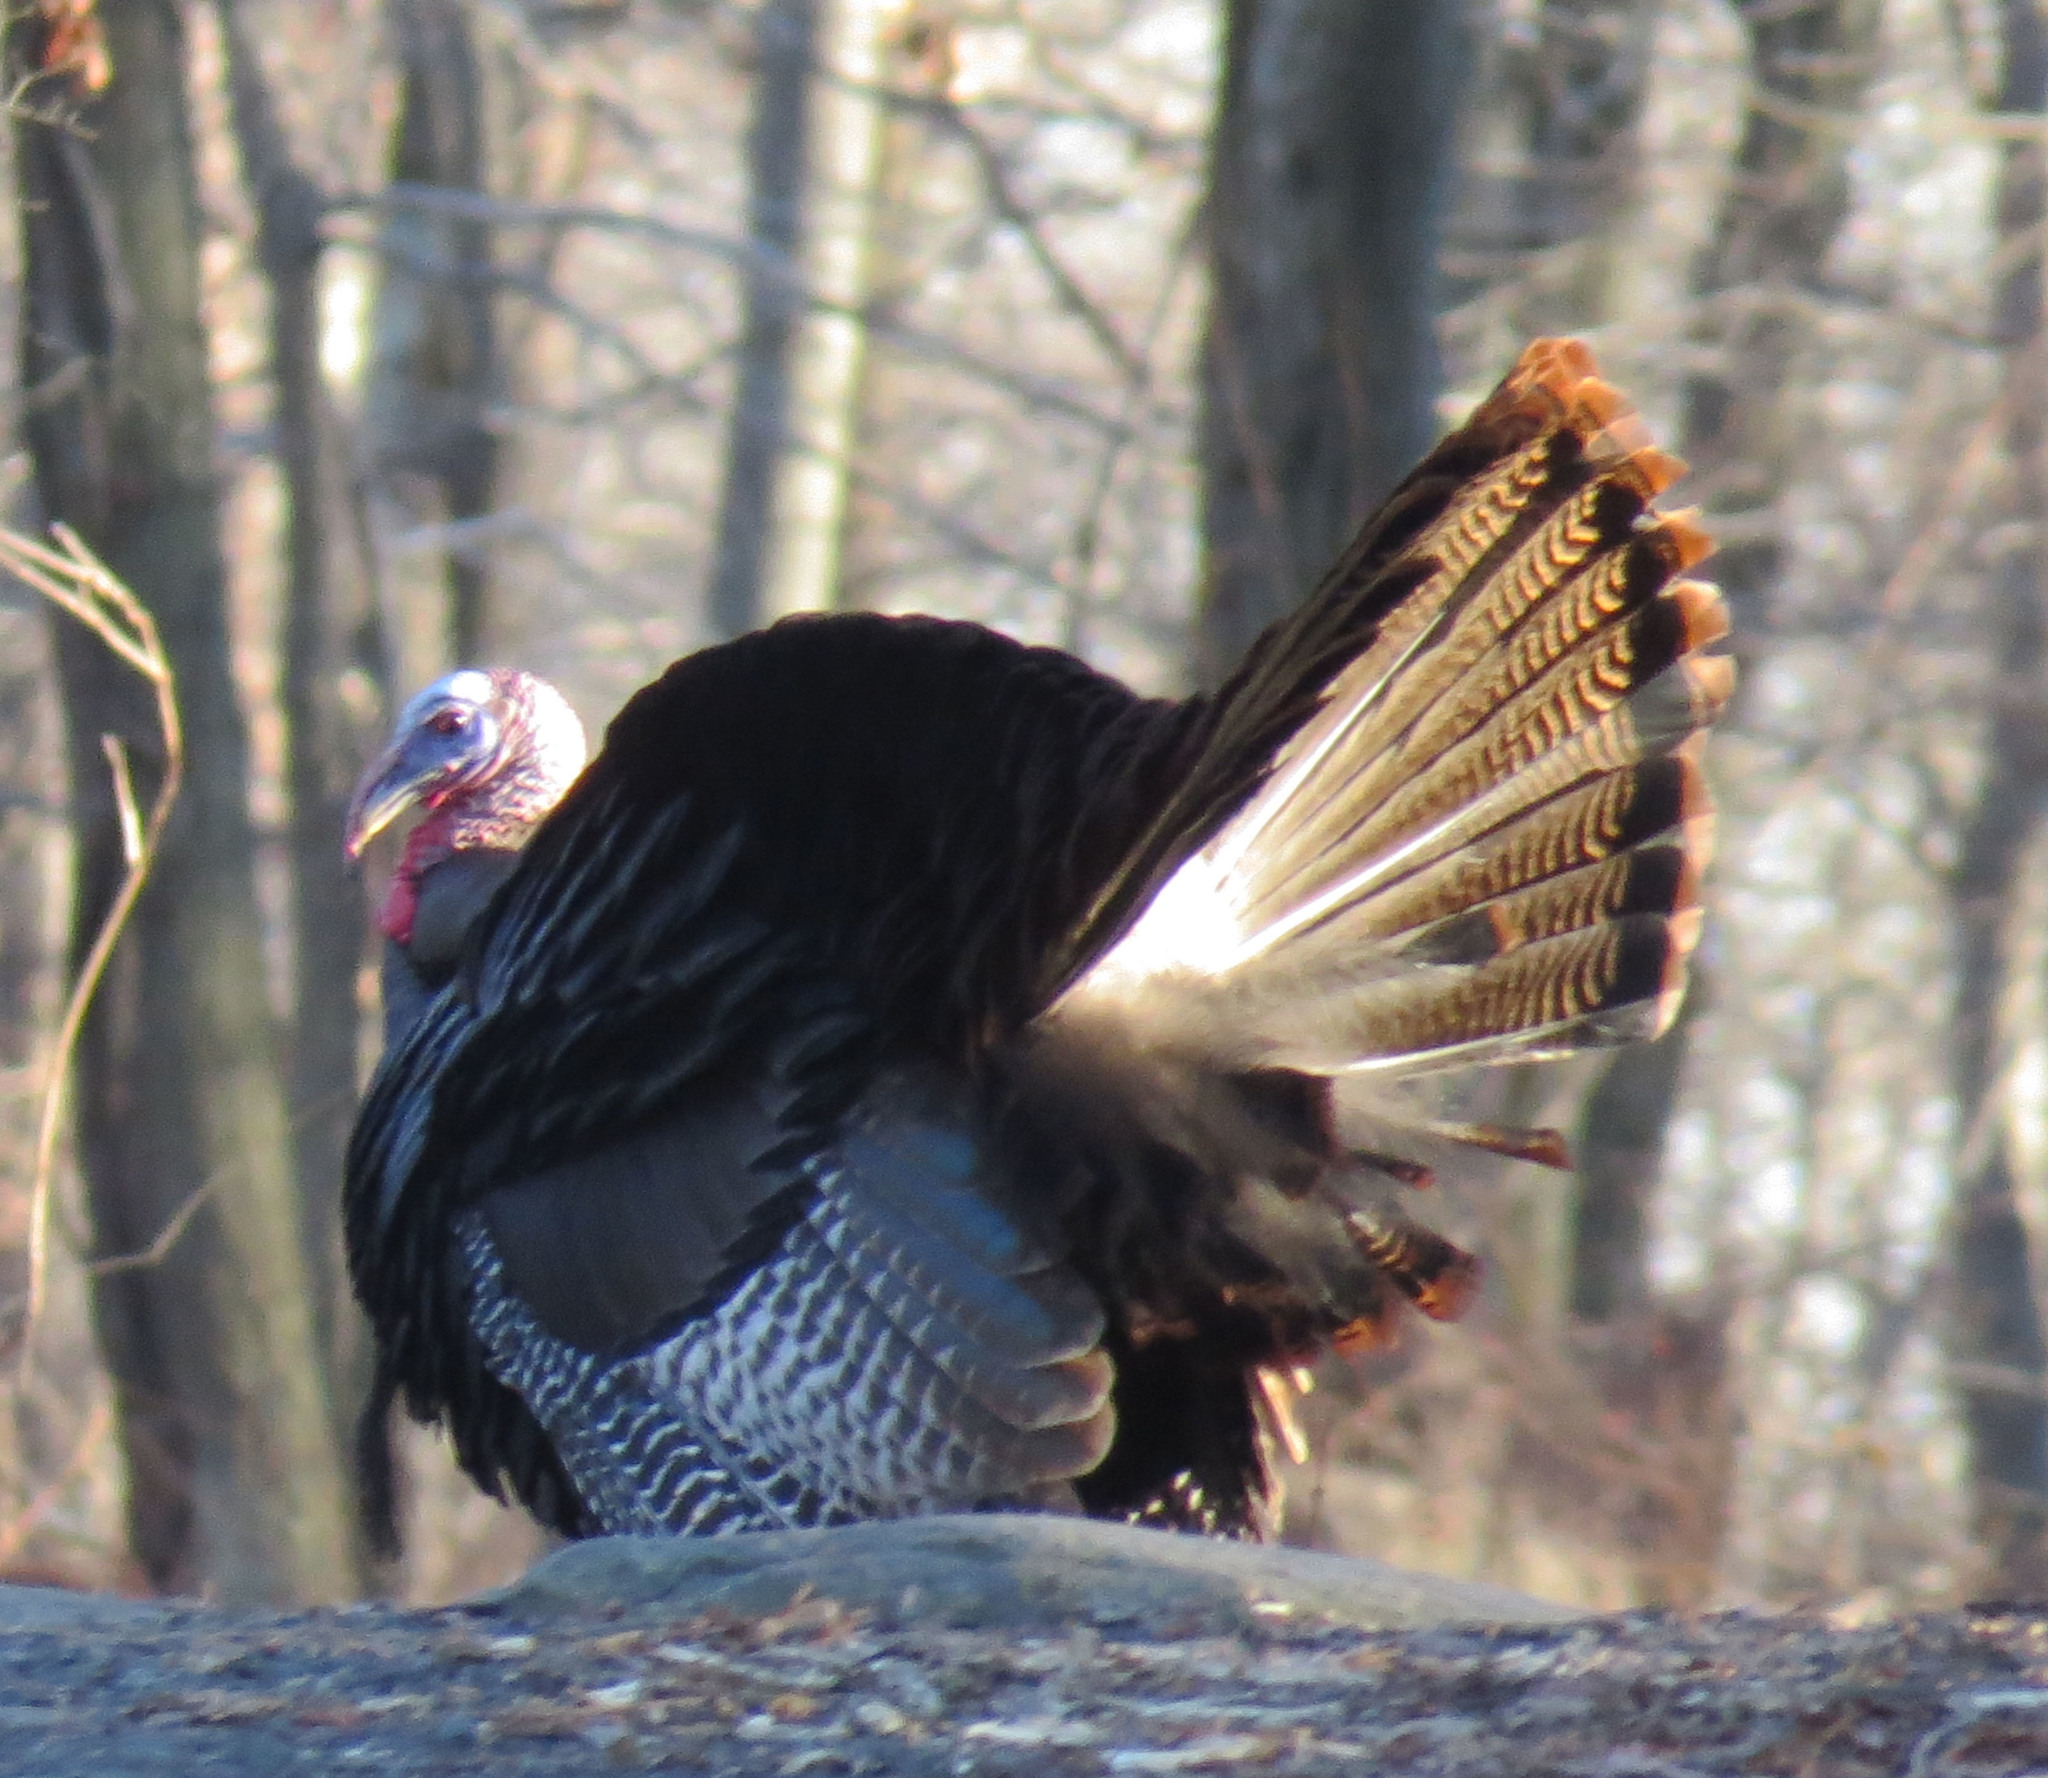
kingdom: Animalia
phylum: Chordata
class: Aves
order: Galliformes
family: Phasianidae
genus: Meleagris
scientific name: Meleagris gallopavo
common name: Wild turkey
